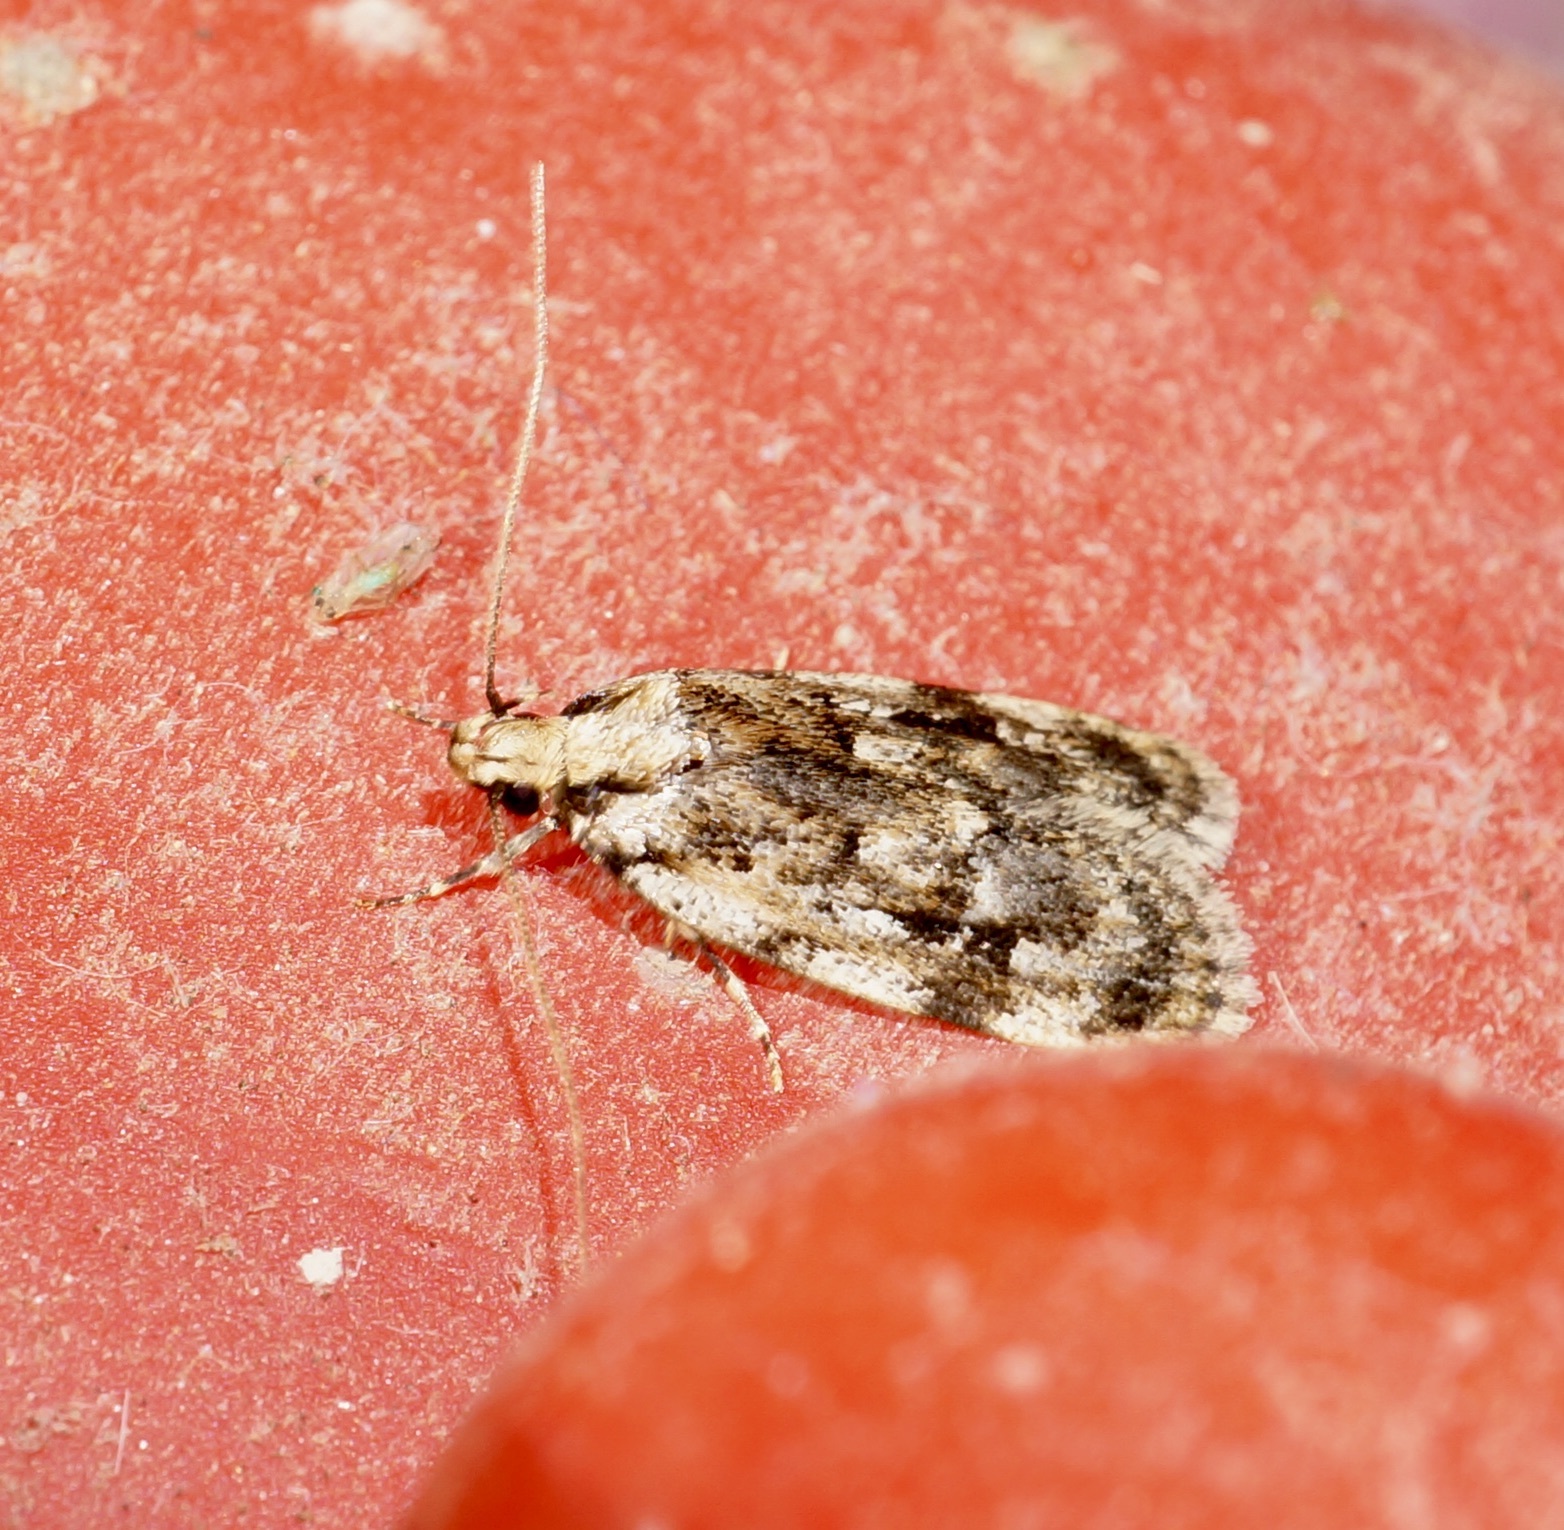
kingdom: Animalia
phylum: Arthropoda
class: Insecta
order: Lepidoptera
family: Oecophoridae
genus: Barea
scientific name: Barea exarcha
